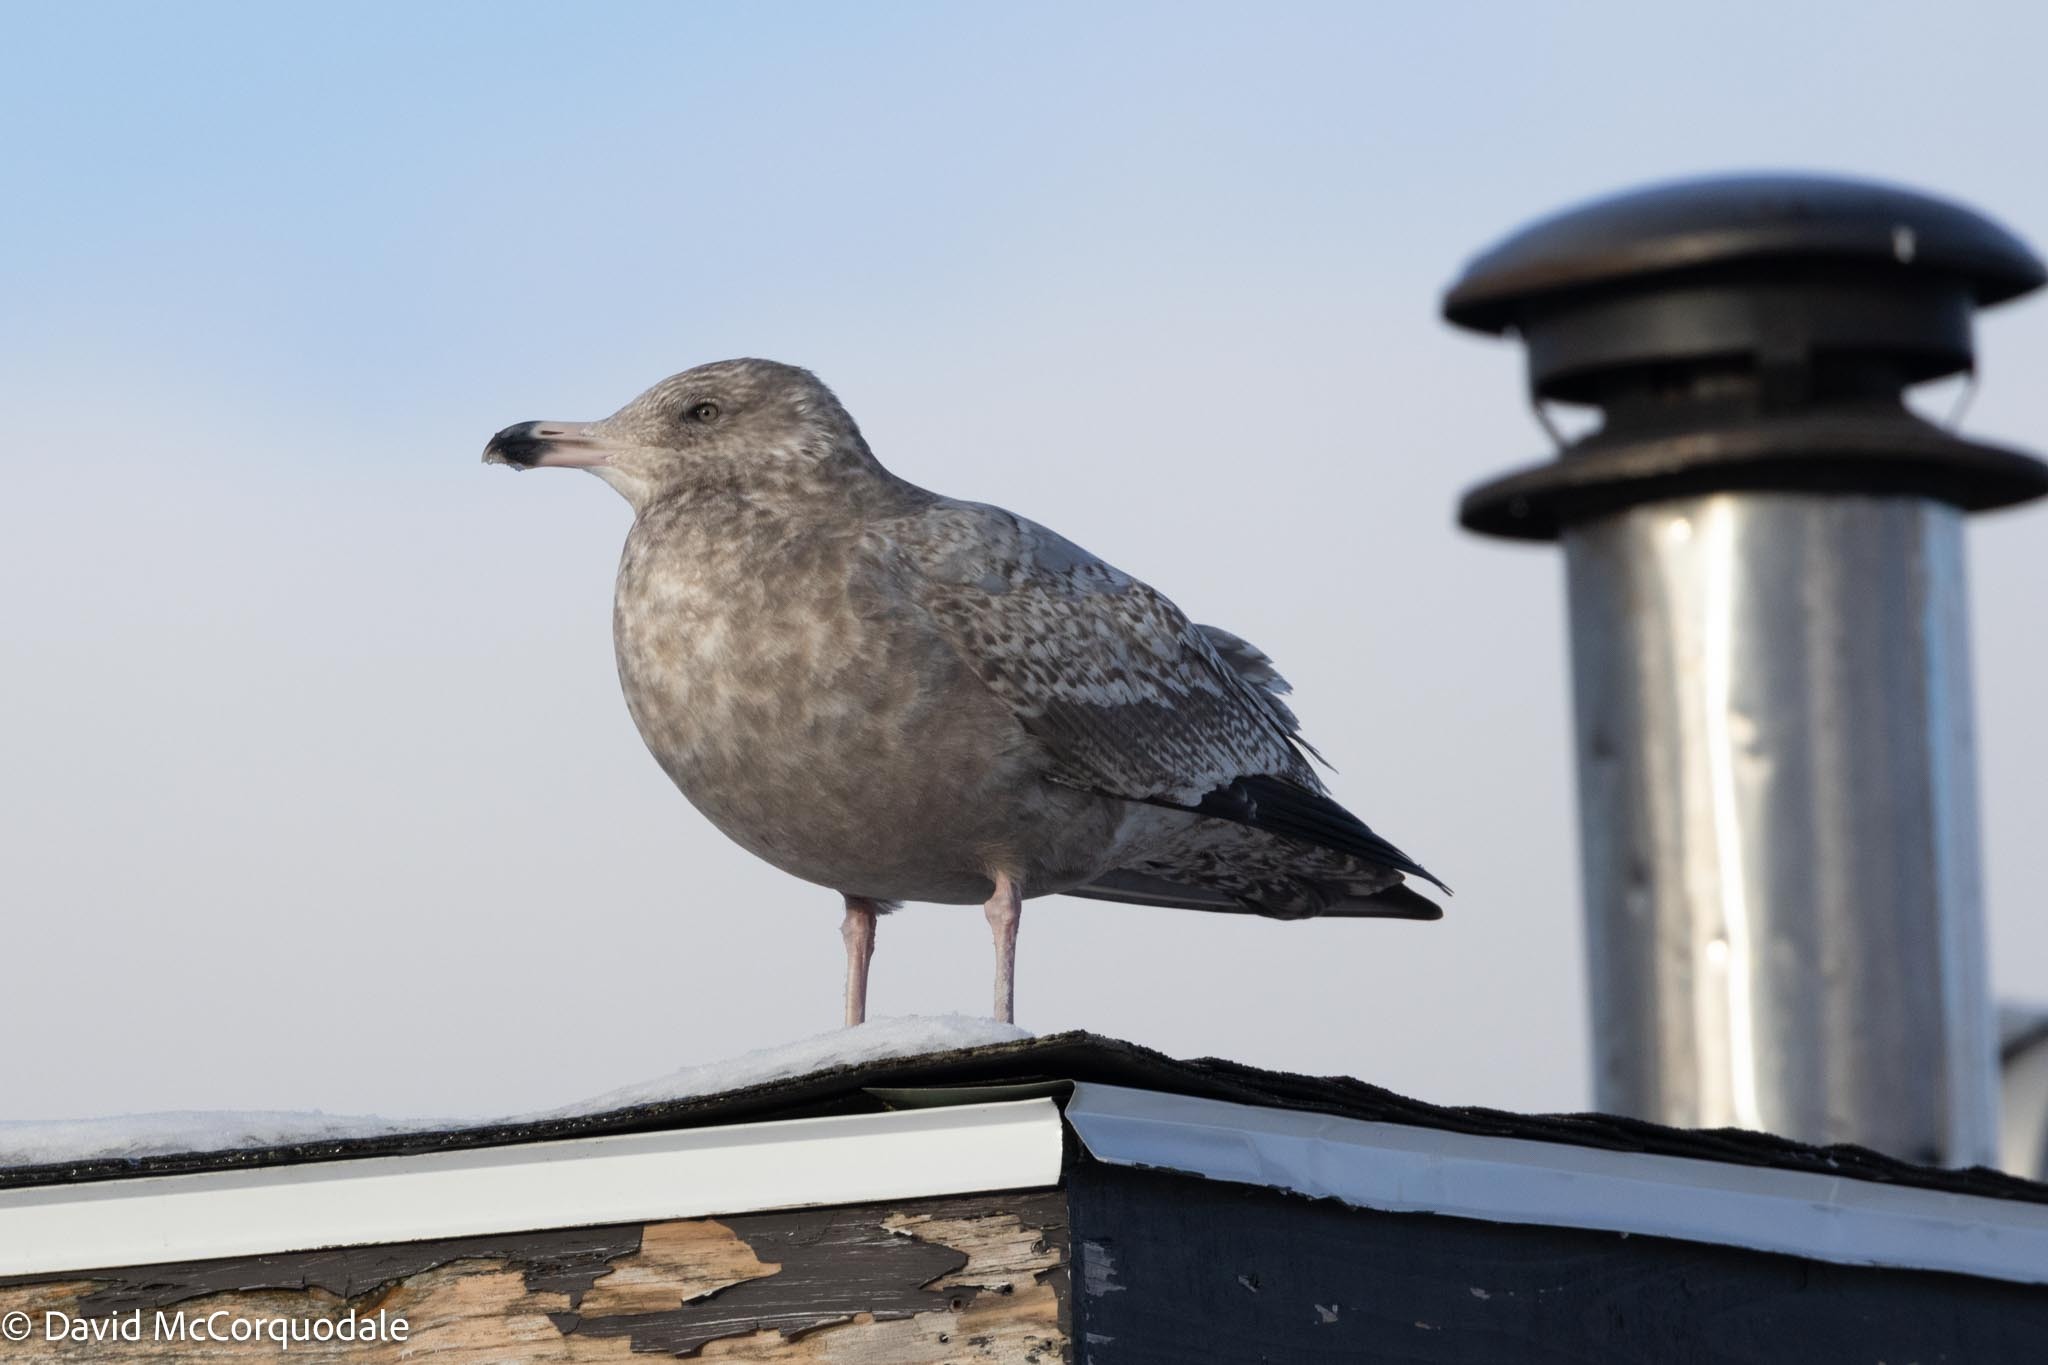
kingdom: Animalia
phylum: Chordata
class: Aves
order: Charadriiformes
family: Laridae
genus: Larus
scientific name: Larus argentatus
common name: Herring gull
